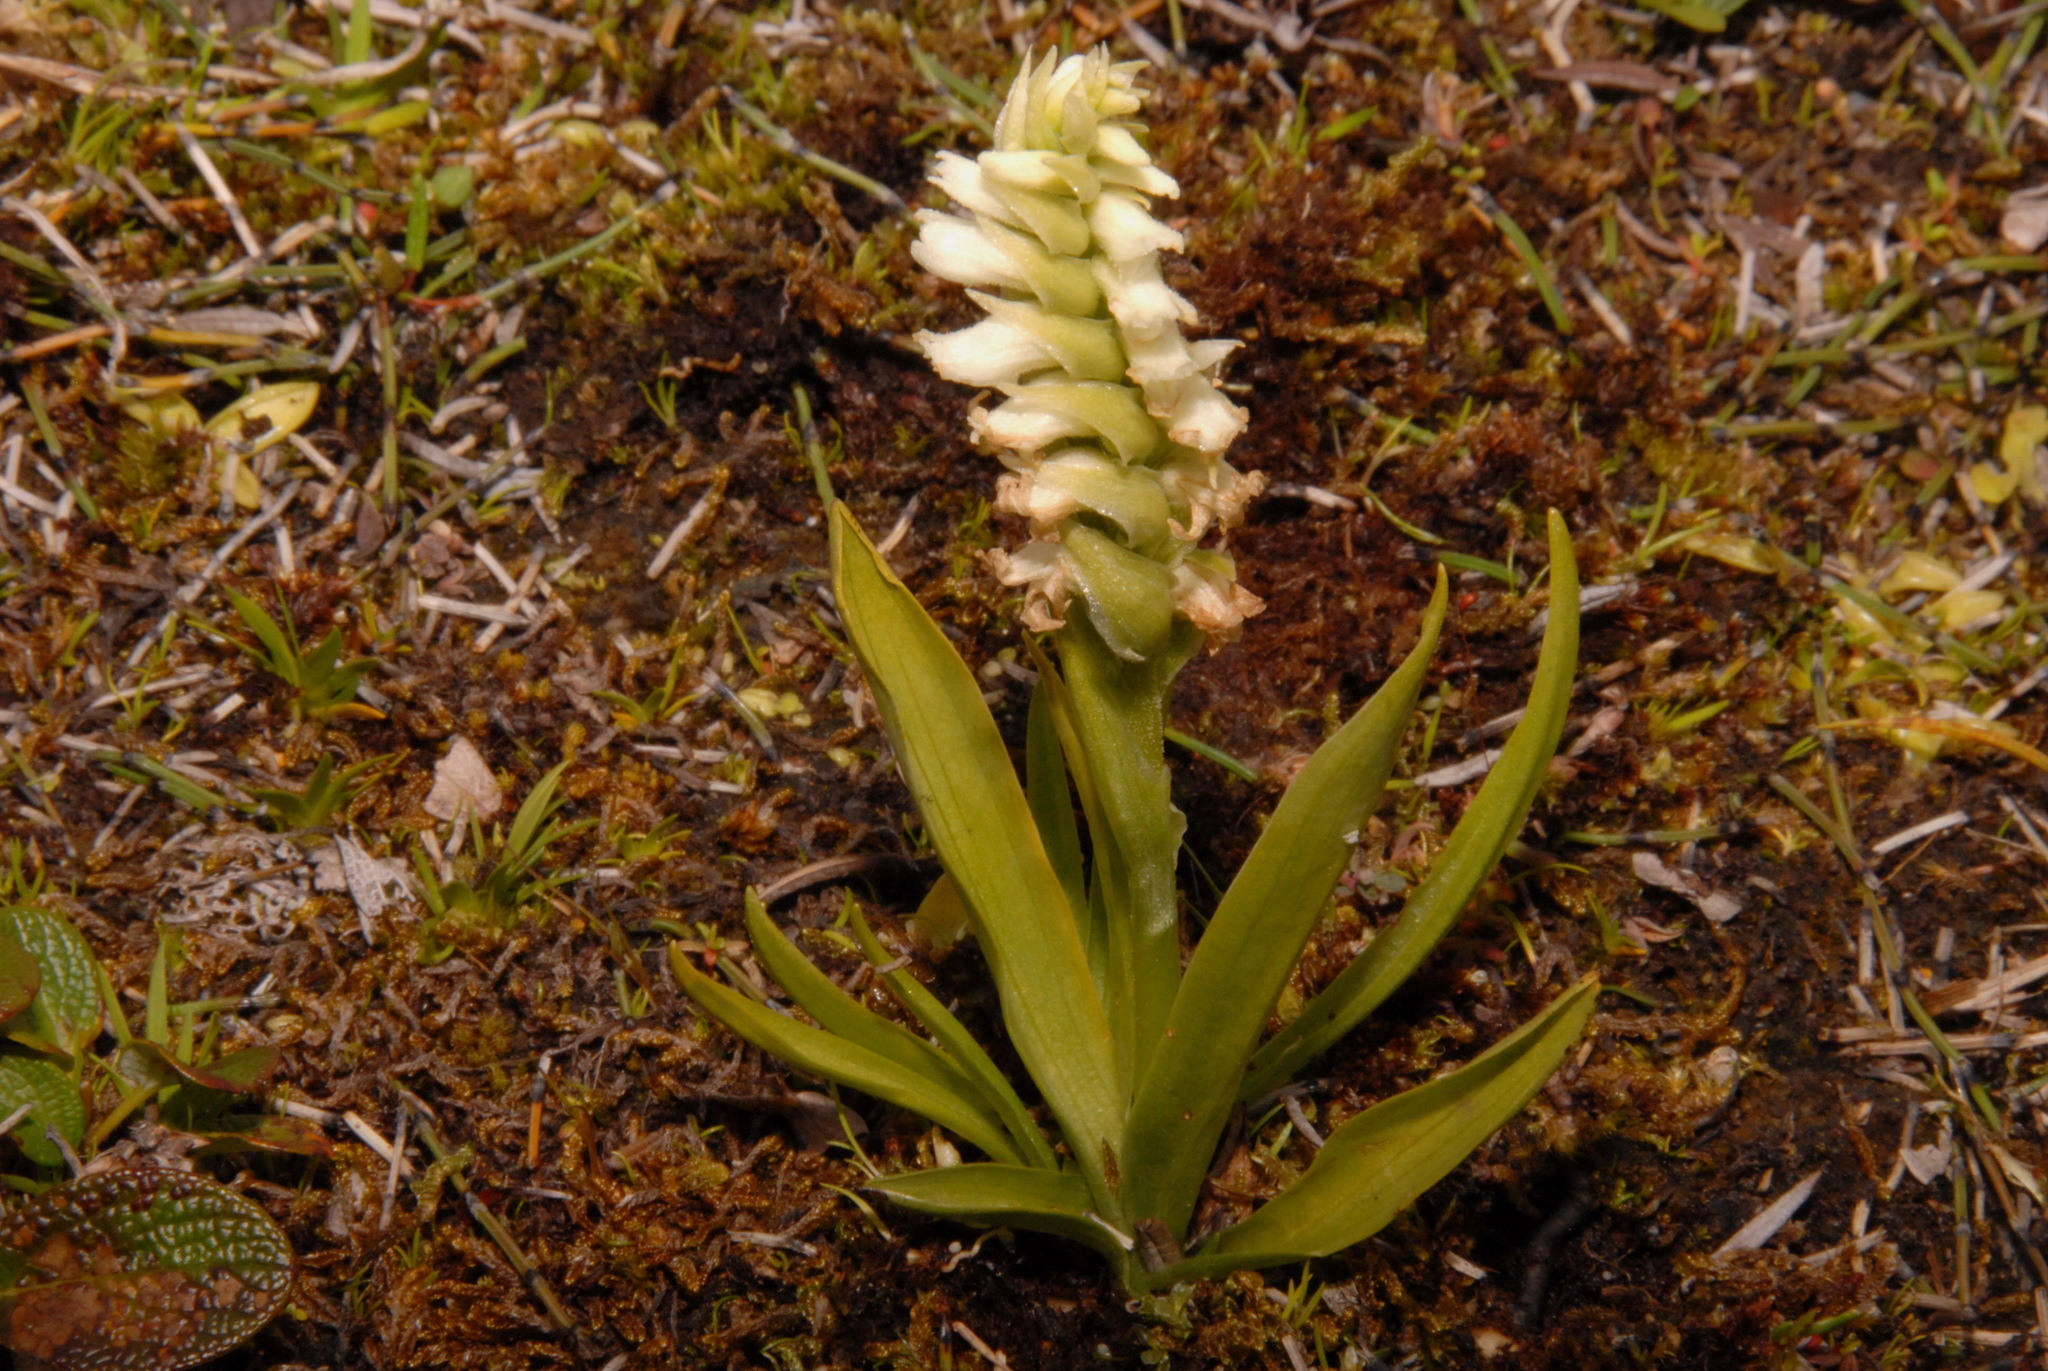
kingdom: Plantae
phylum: Tracheophyta
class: Liliopsida
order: Asparagales
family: Orchidaceae
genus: Spiranthes
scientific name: Spiranthes romanzoffiana
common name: Irish lady's-tresses
